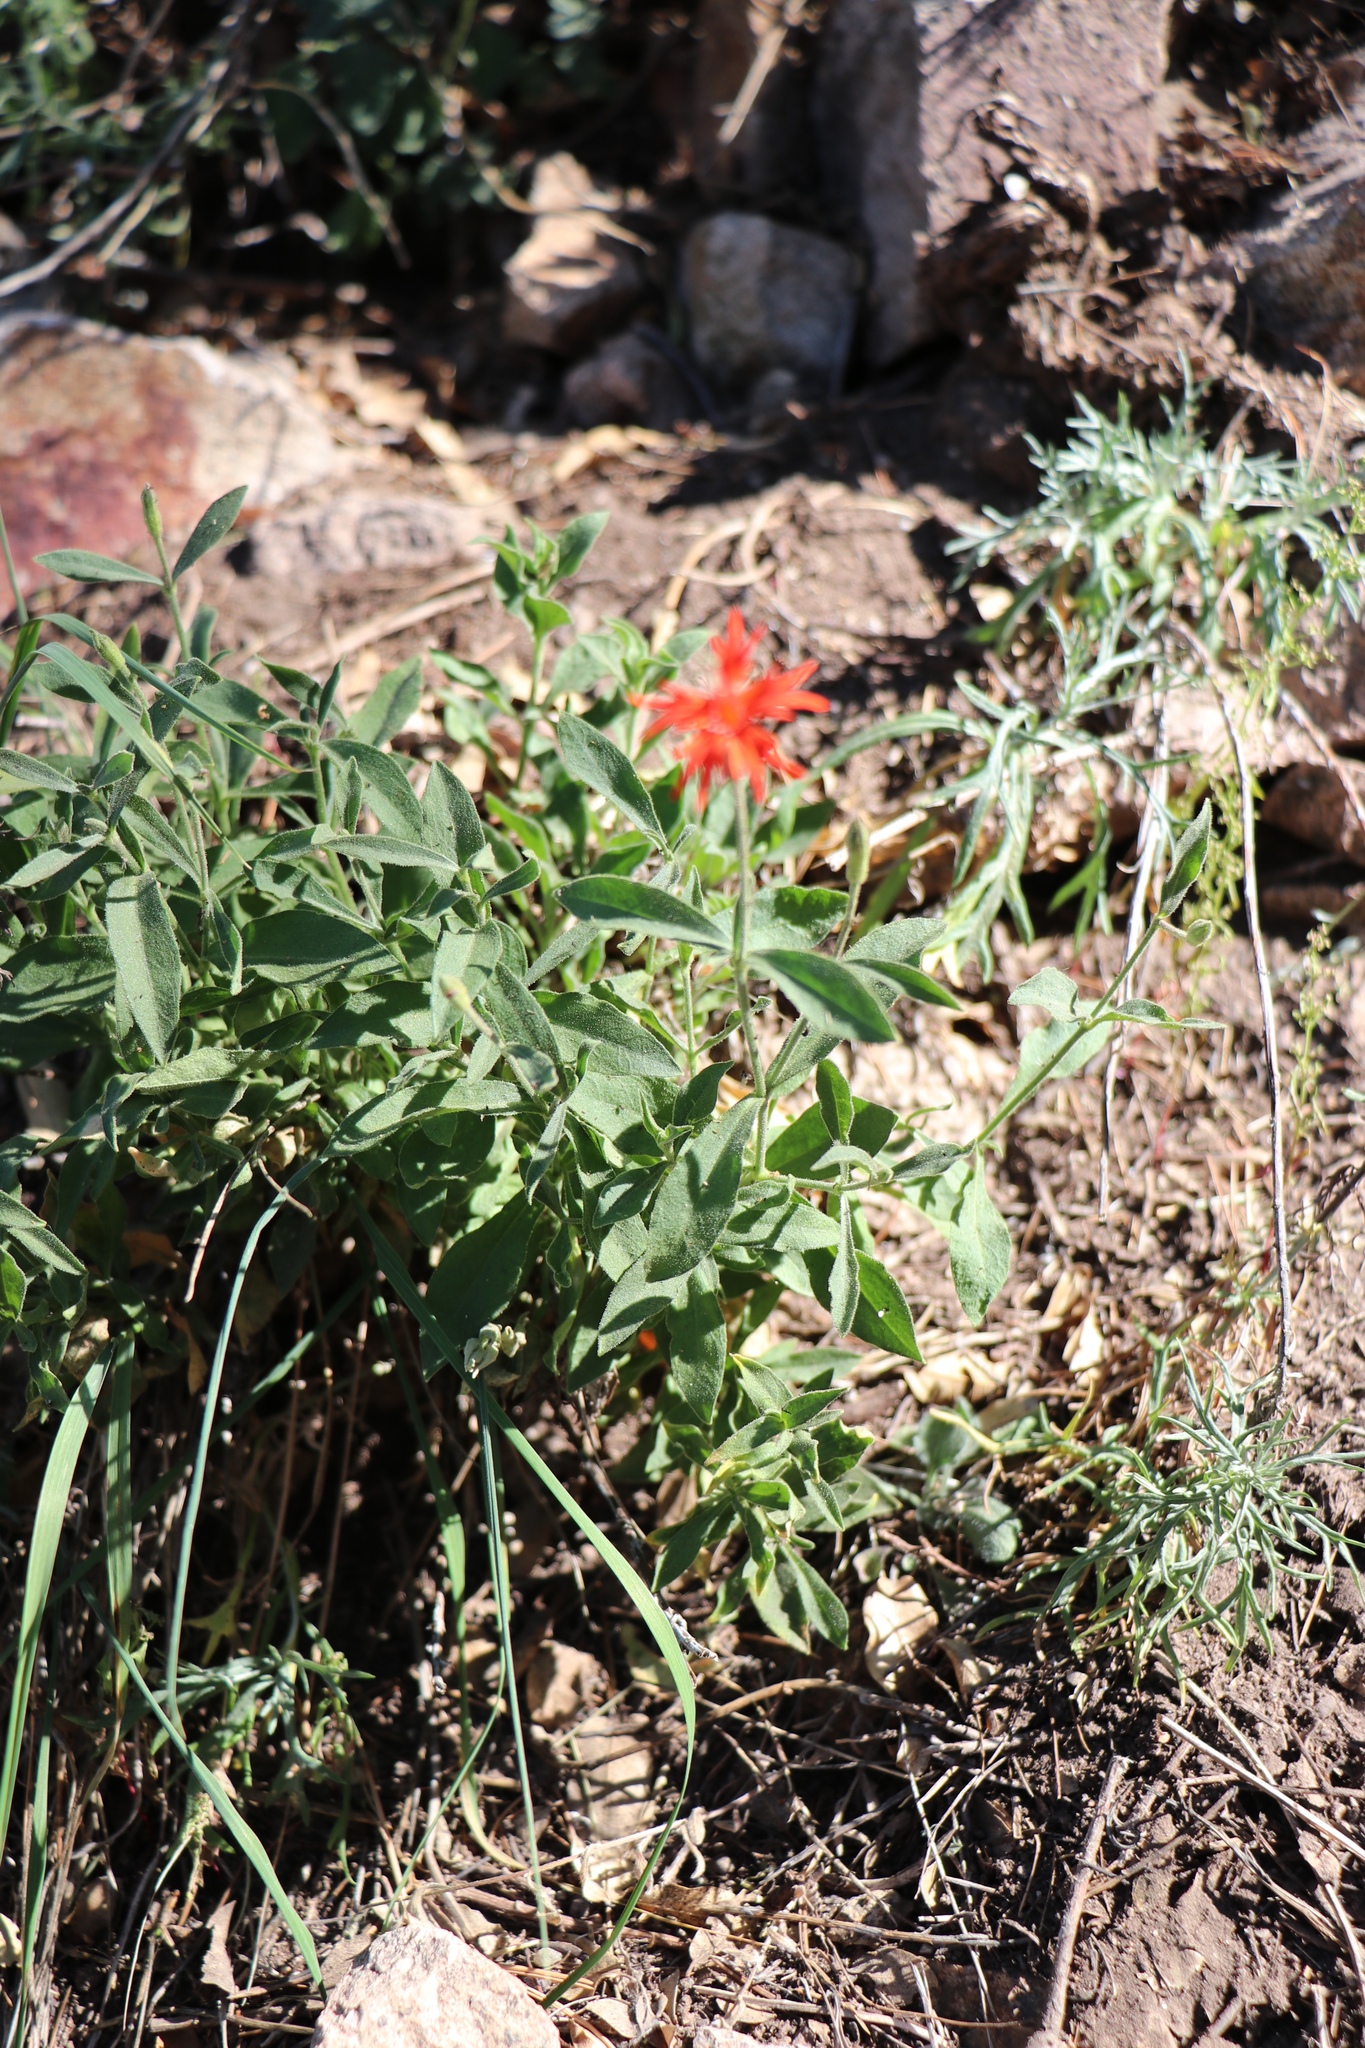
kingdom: Plantae
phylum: Tracheophyta
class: Magnoliopsida
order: Caryophyllales
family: Caryophyllaceae
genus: Silene
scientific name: Silene laciniata
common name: Indian-pink
